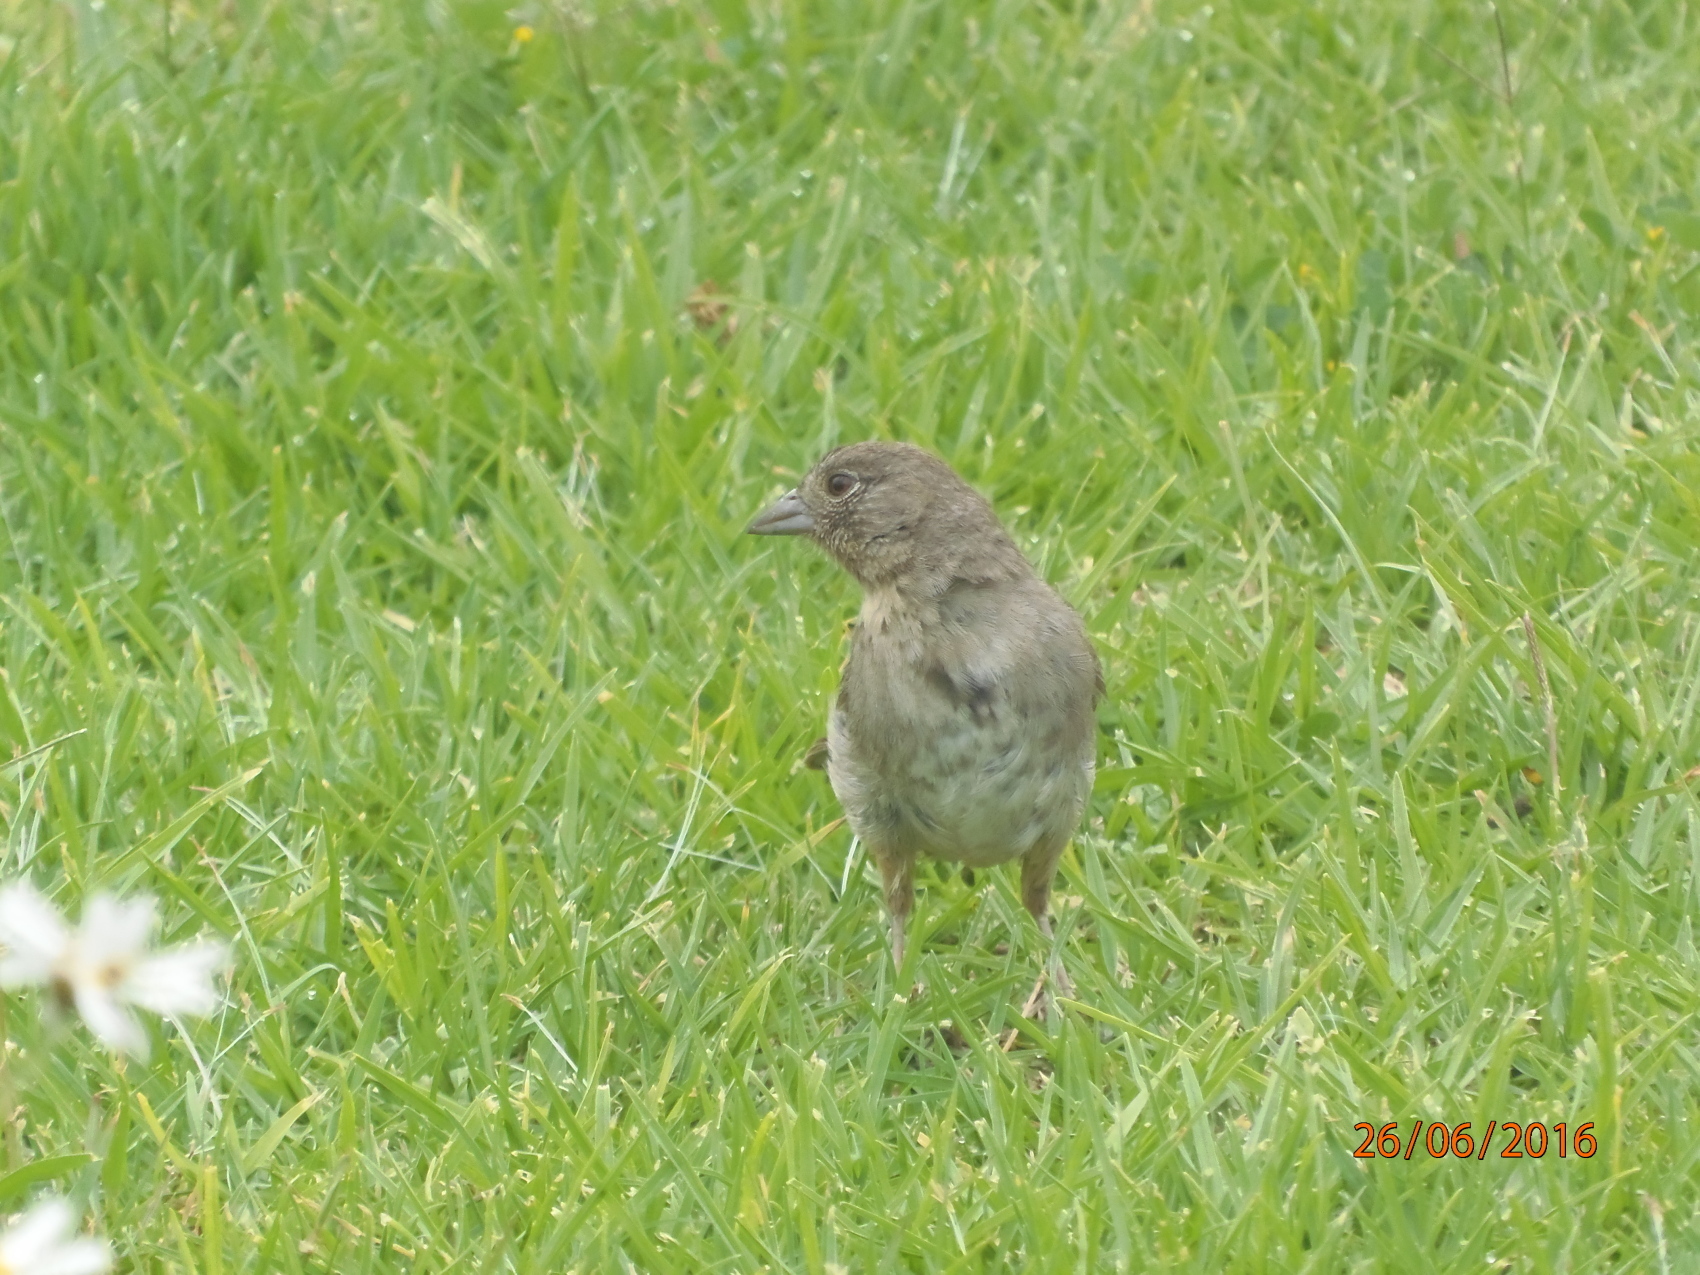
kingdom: Animalia
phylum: Chordata
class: Aves
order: Passeriformes
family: Passerellidae
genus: Melozone
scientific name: Melozone fusca
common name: Canyon towhee
